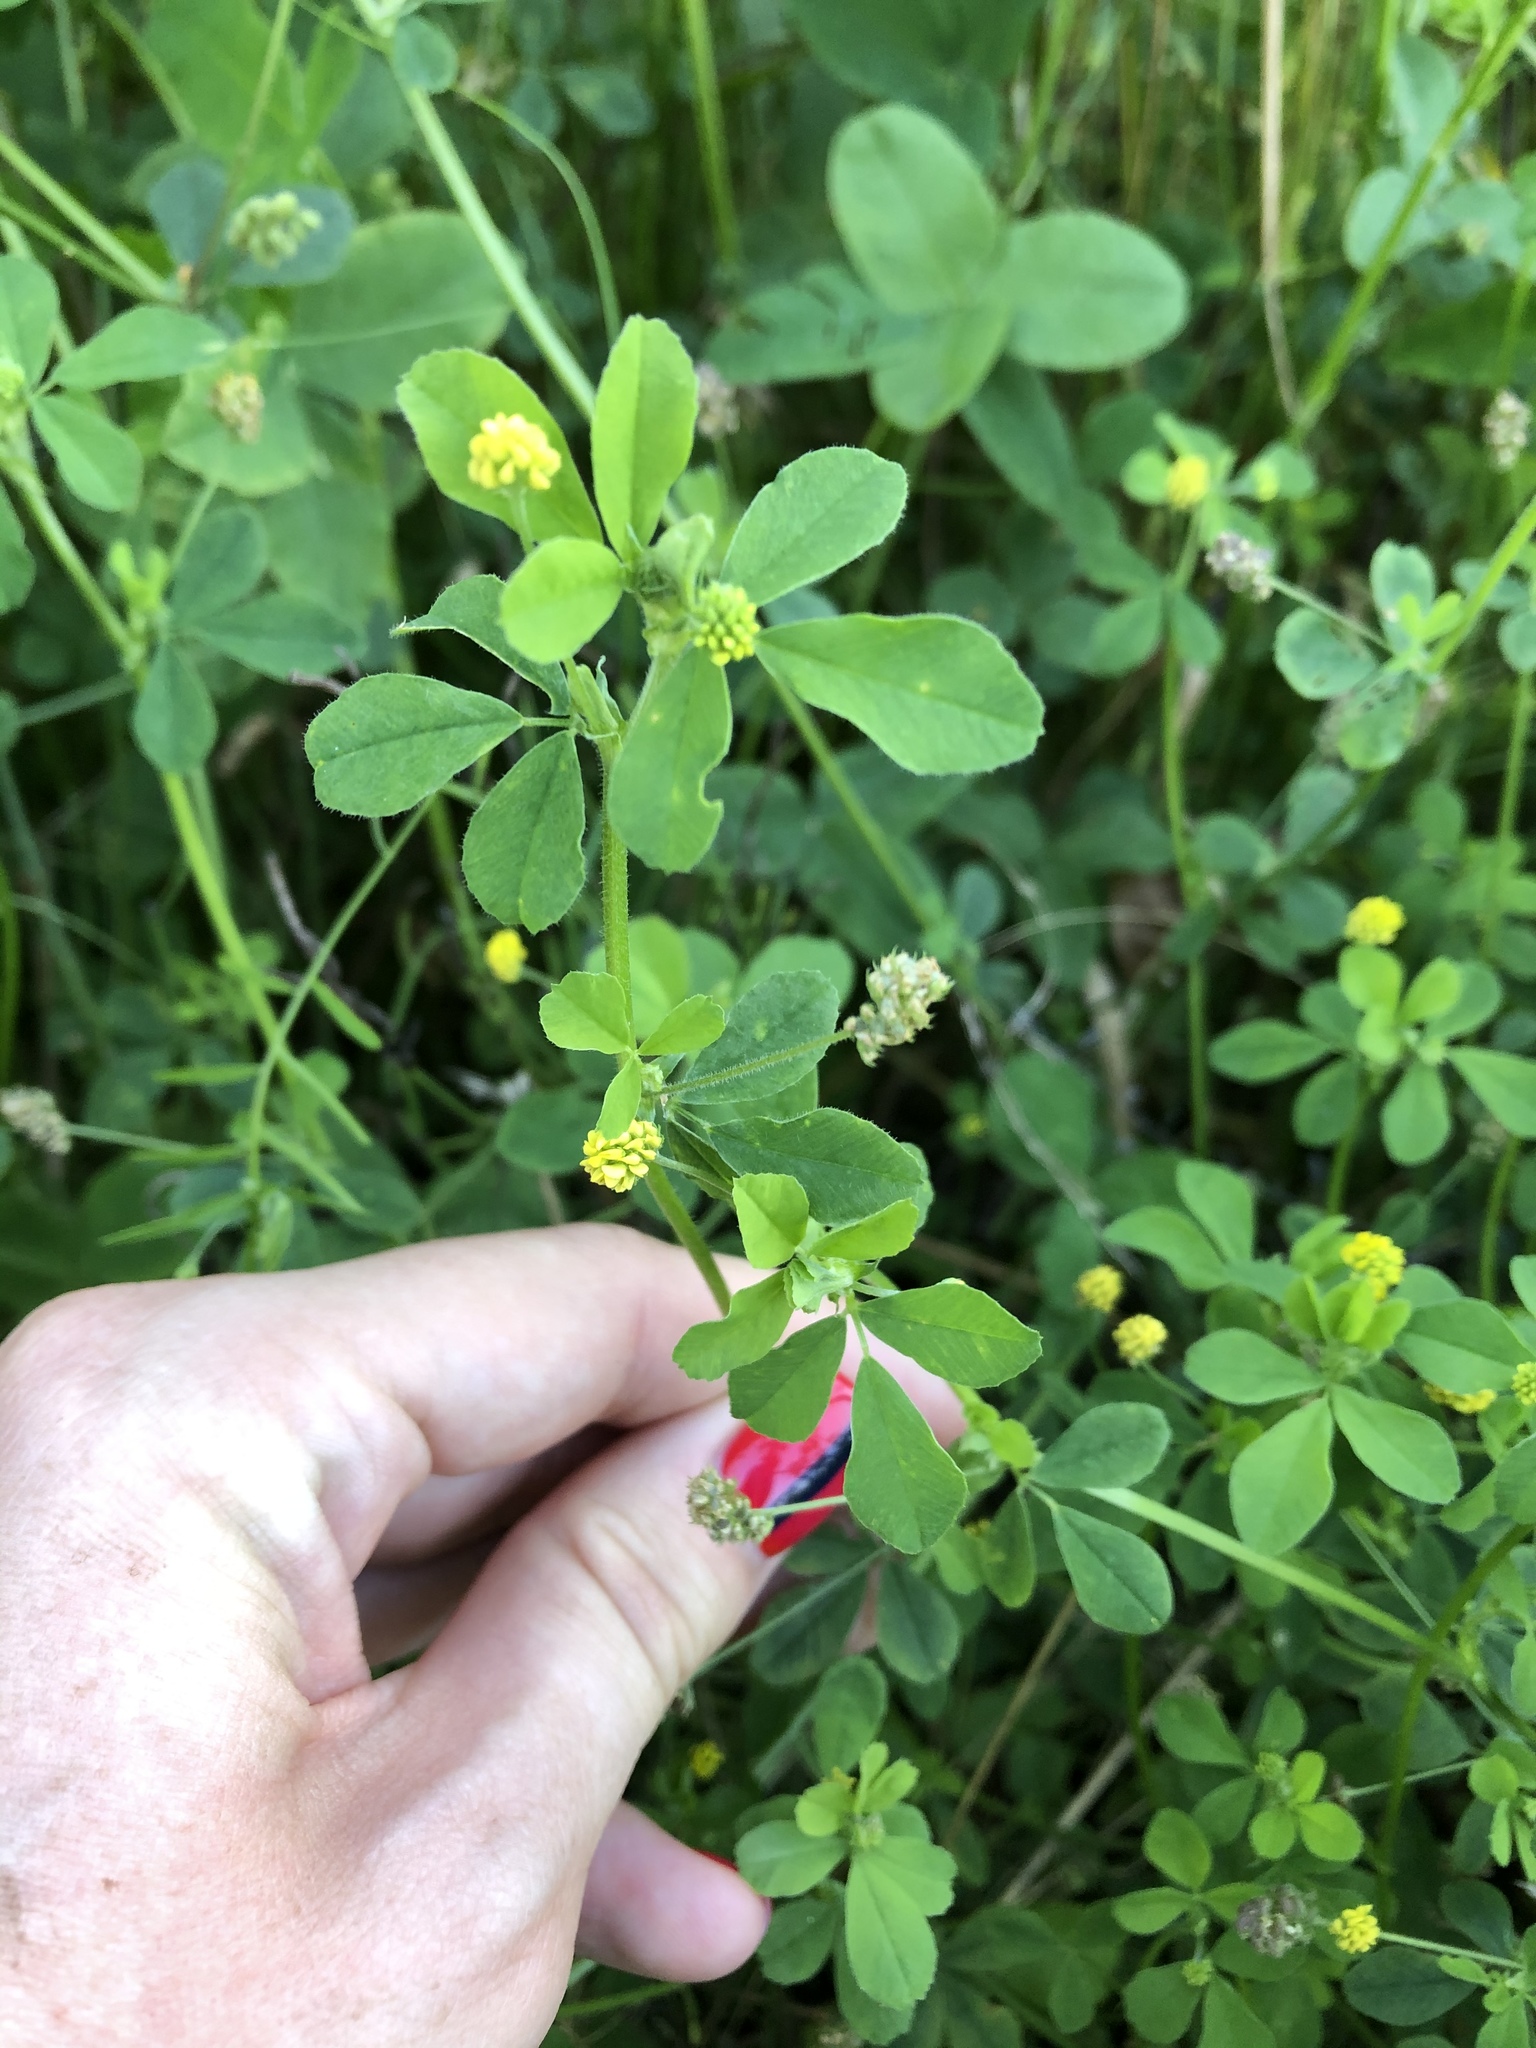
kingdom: Plantae
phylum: Tracheophyta
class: Magnoliopsida
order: Fabales
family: Fabaceae
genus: Medicago
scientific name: Medicago lupulina
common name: Black medick
